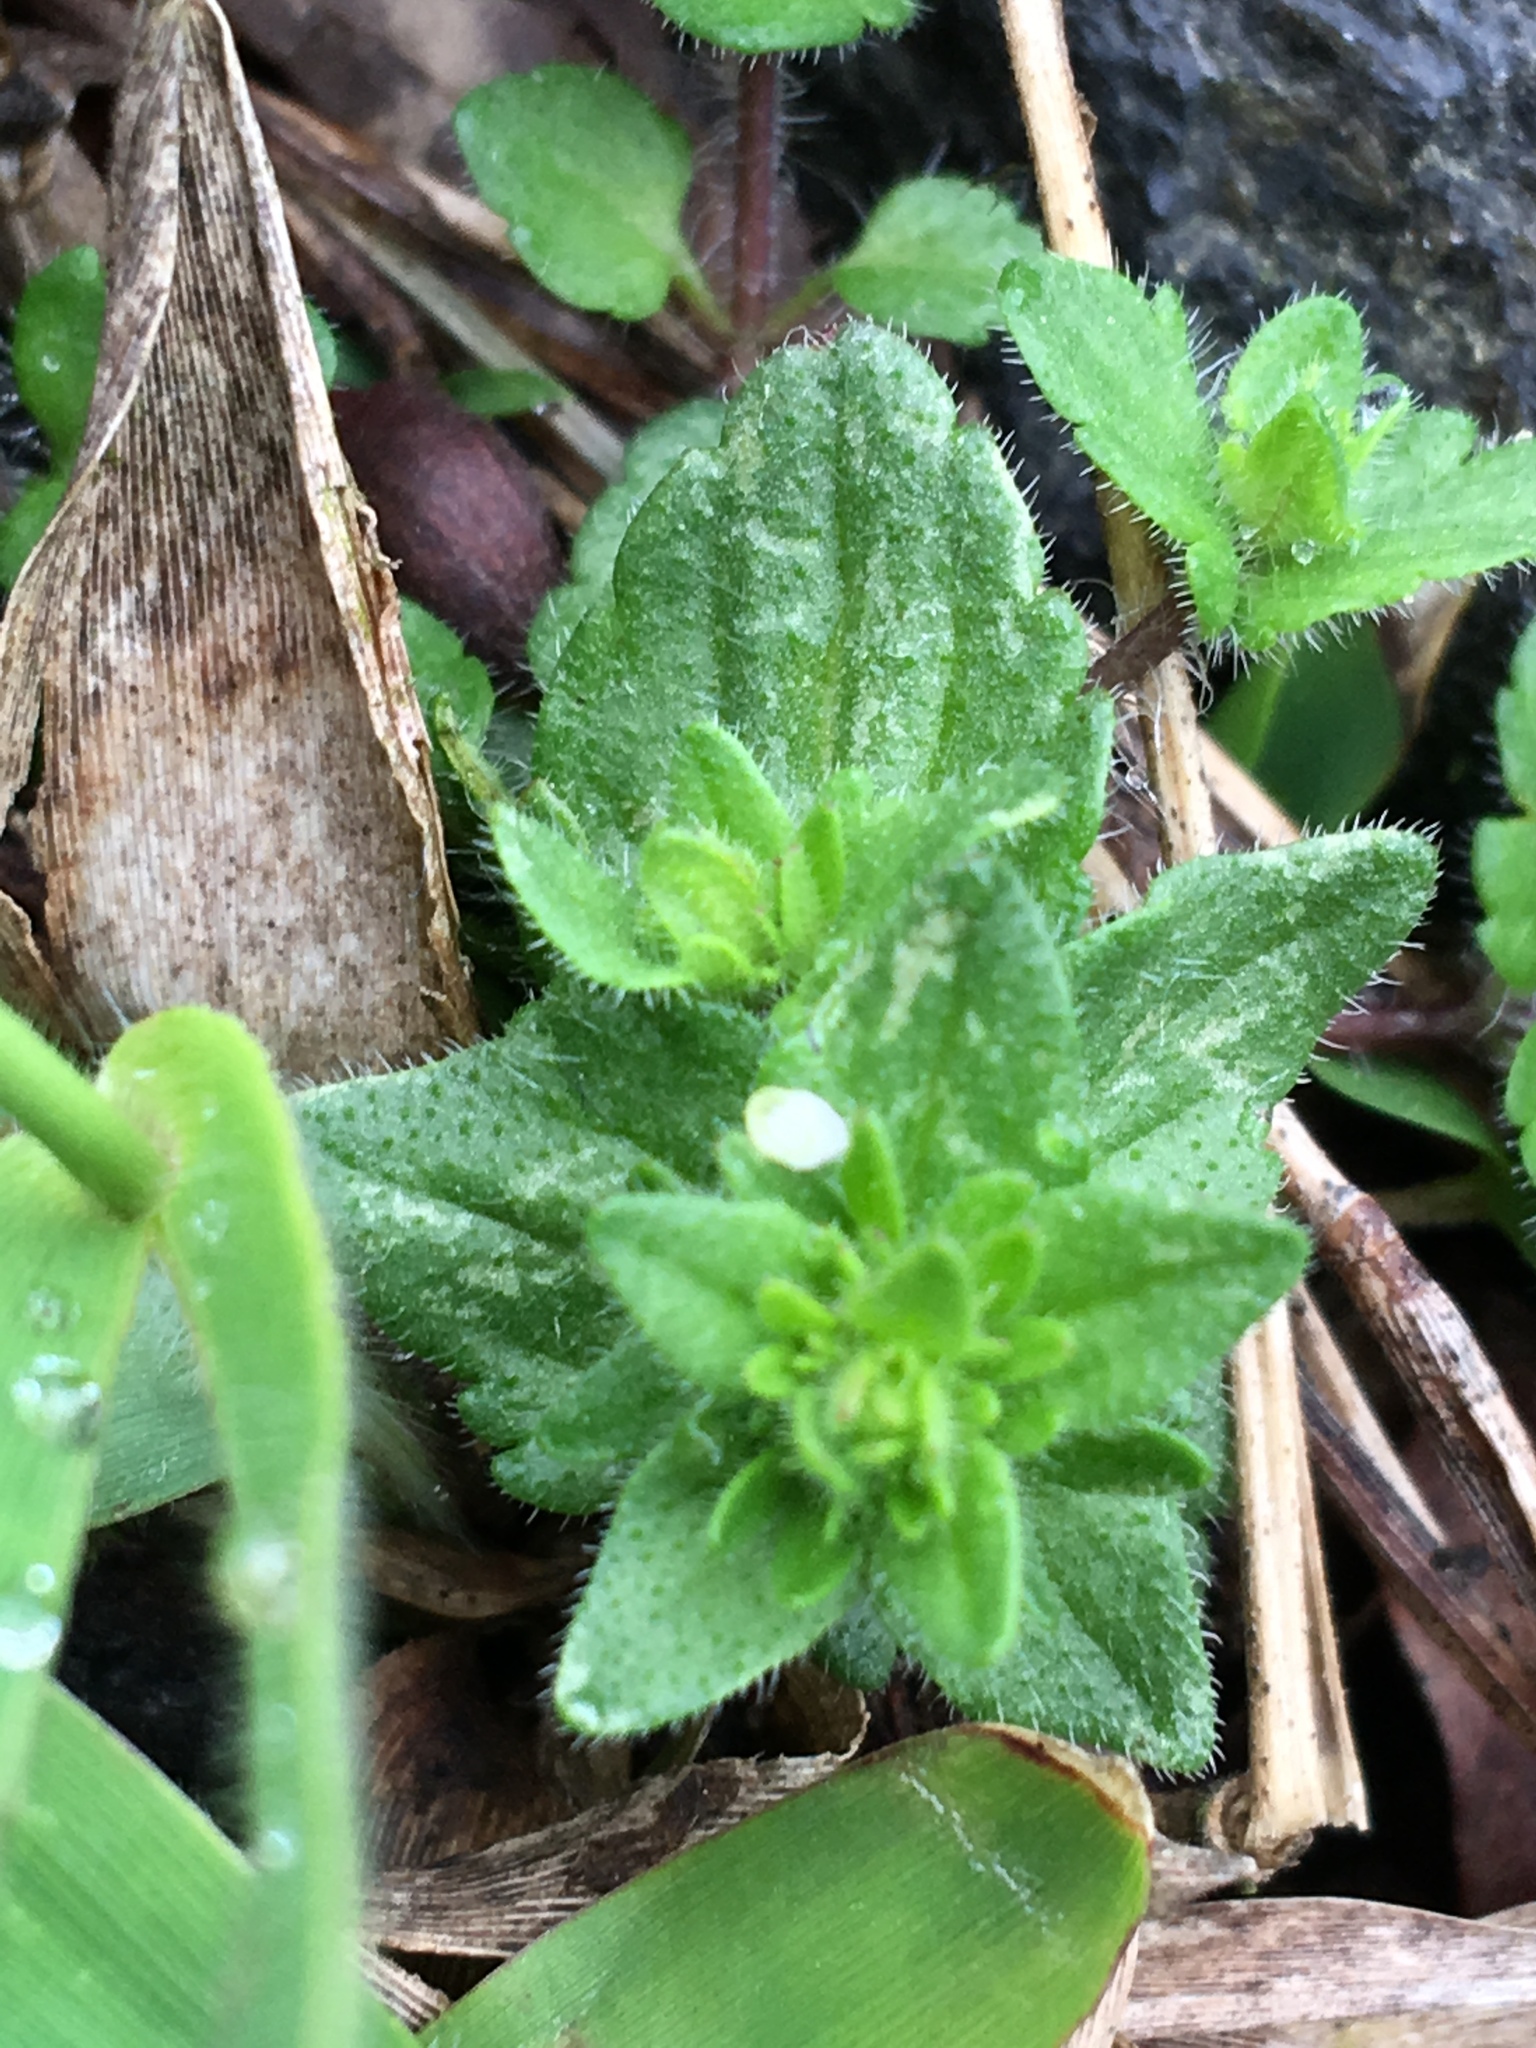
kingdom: Plantae
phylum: Tracheophyta
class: Magnoliopsida
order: Lamiales
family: Plantaginaceae
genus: Veronica
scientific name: Veronica arvensis
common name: Corn speedwell
